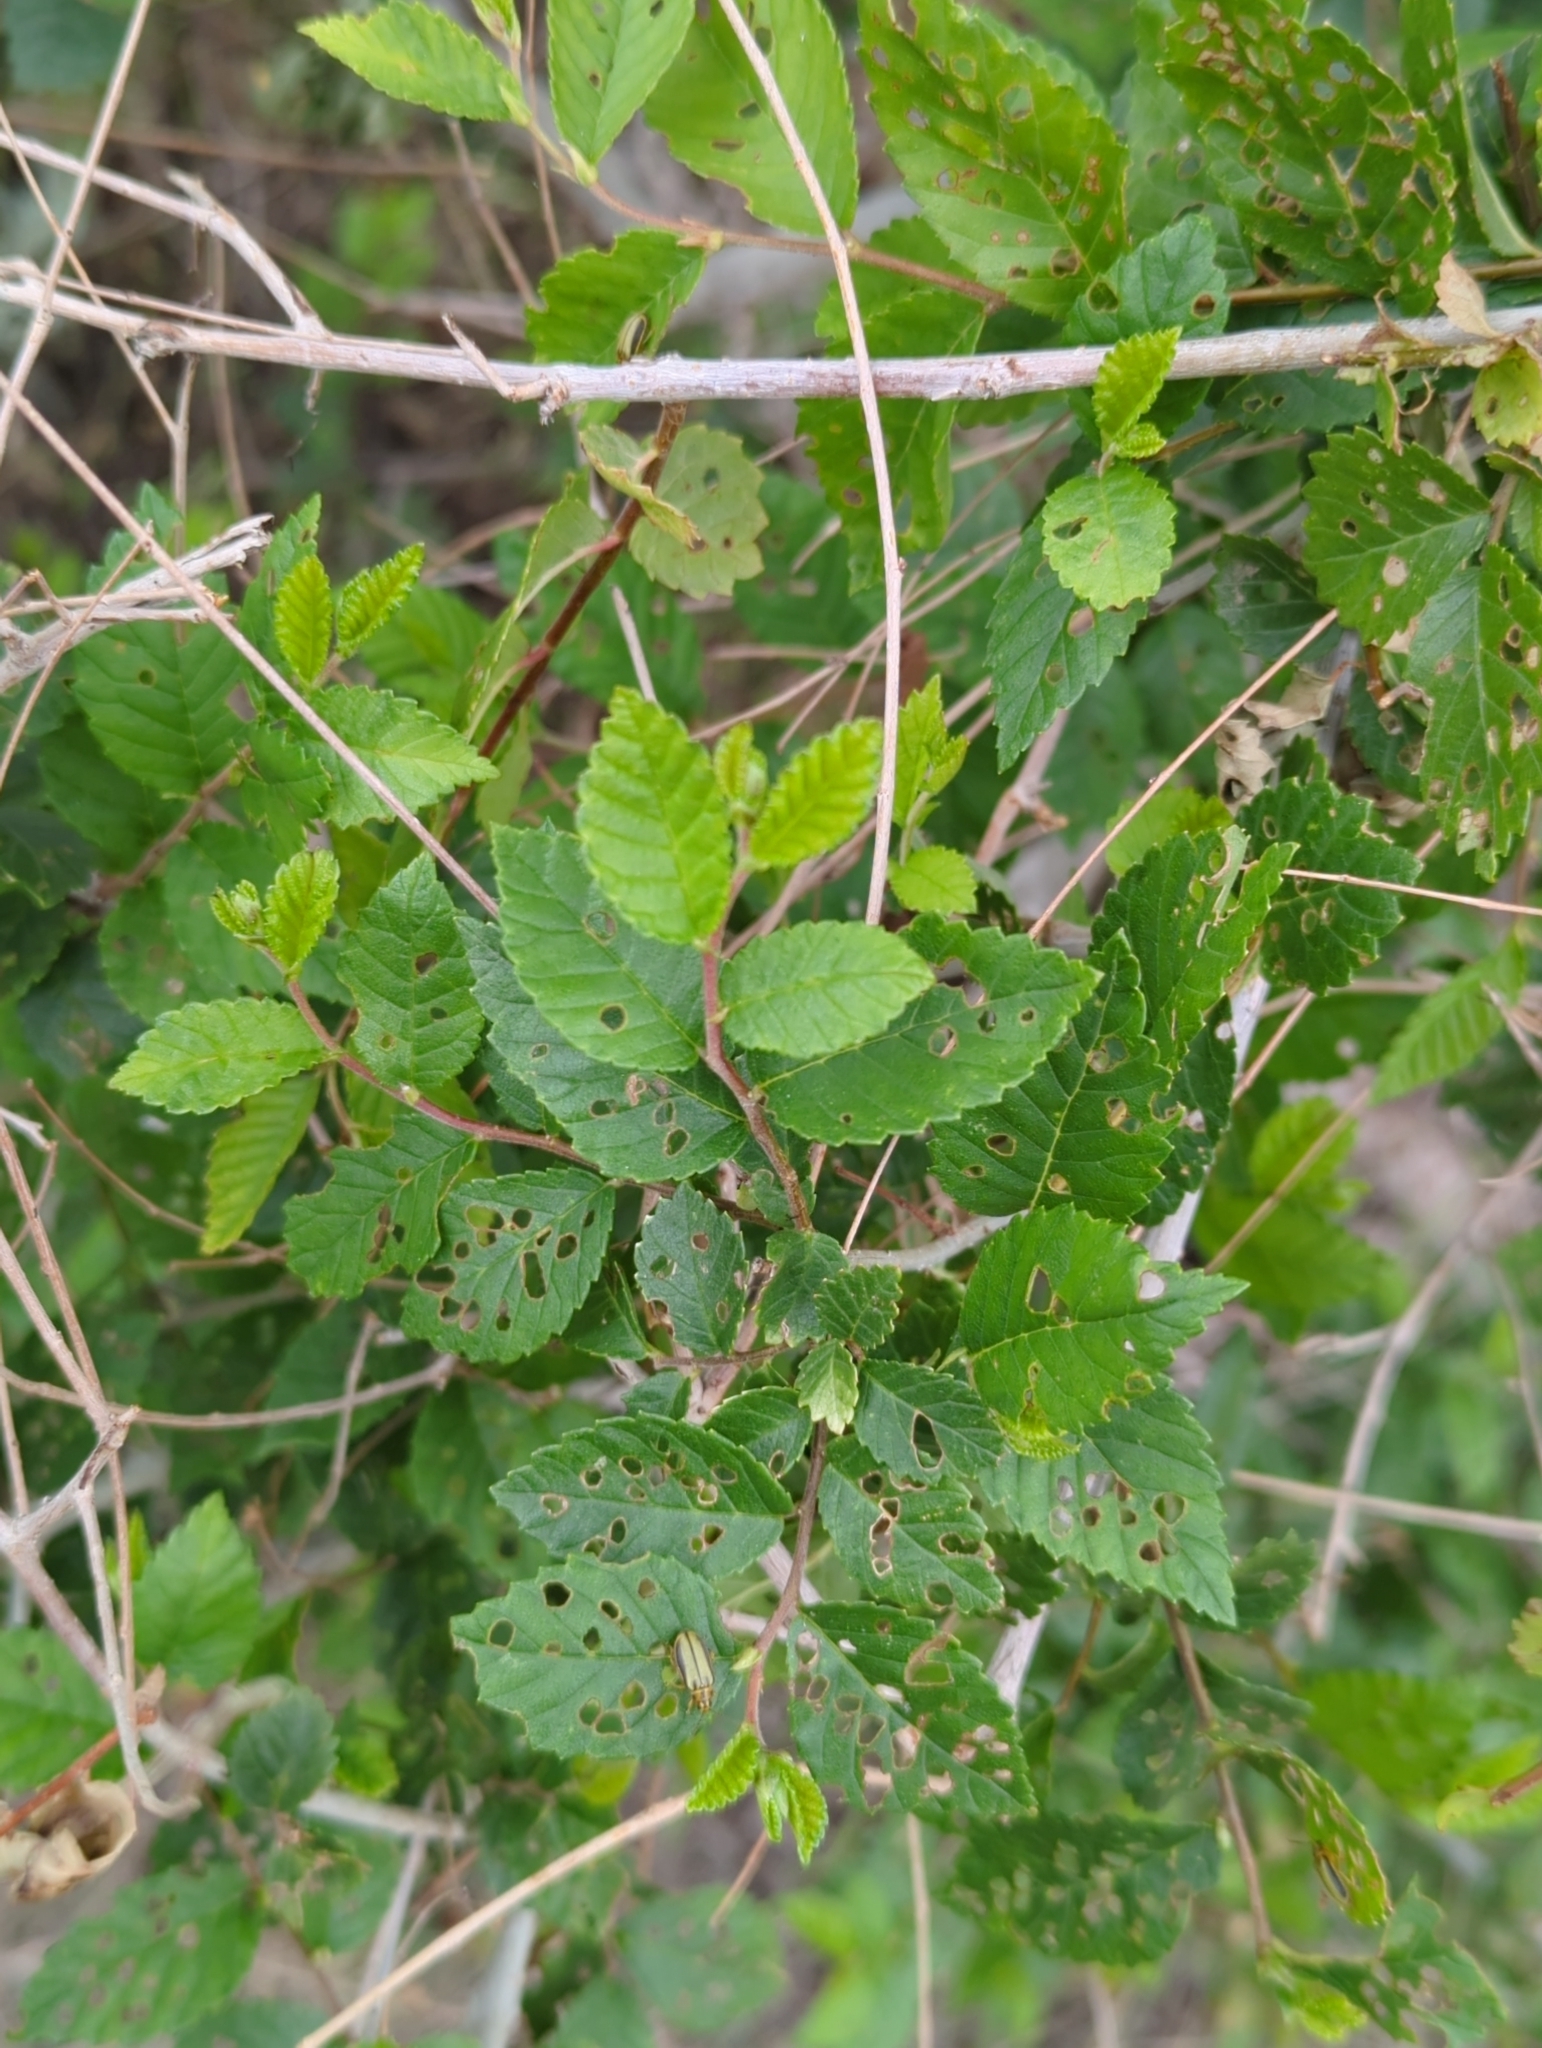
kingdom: Plantae
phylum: Tracheophyta
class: Magnoliopsida
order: Rosales
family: Ulmaceae
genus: Ulmus
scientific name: Ulmus pumila
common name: Siberian elm
